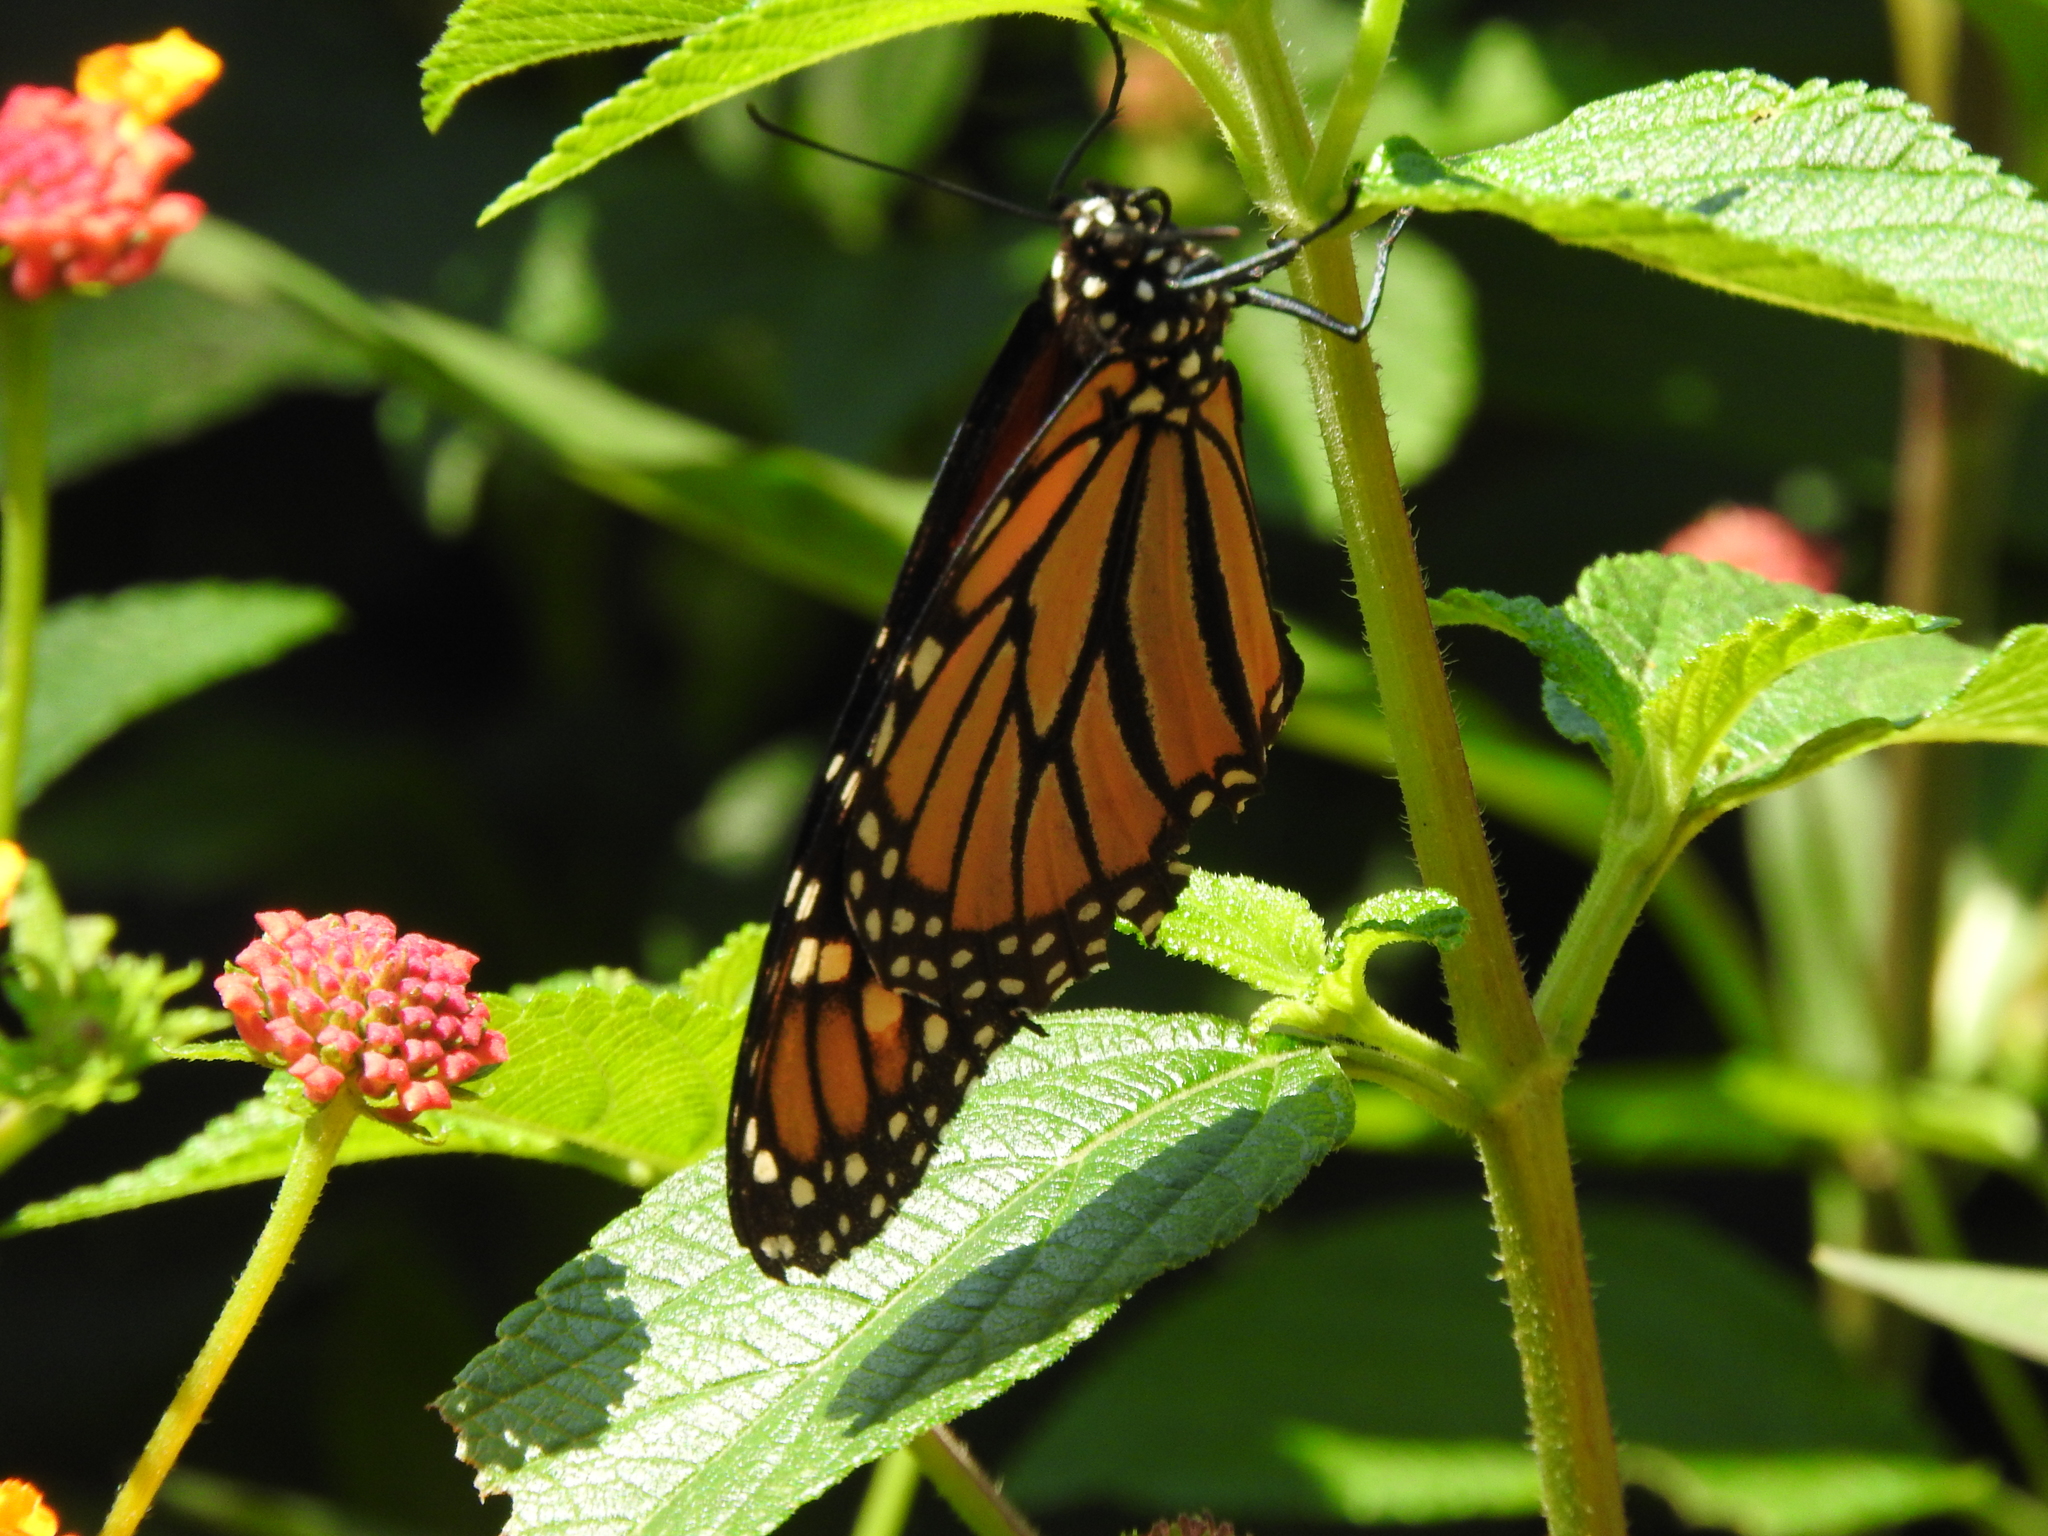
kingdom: Animalia
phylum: Arthropoda
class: Insecta
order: Lepidoptera
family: Nymphalidae
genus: Danaus
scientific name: Danaus plexippus
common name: Monarch
